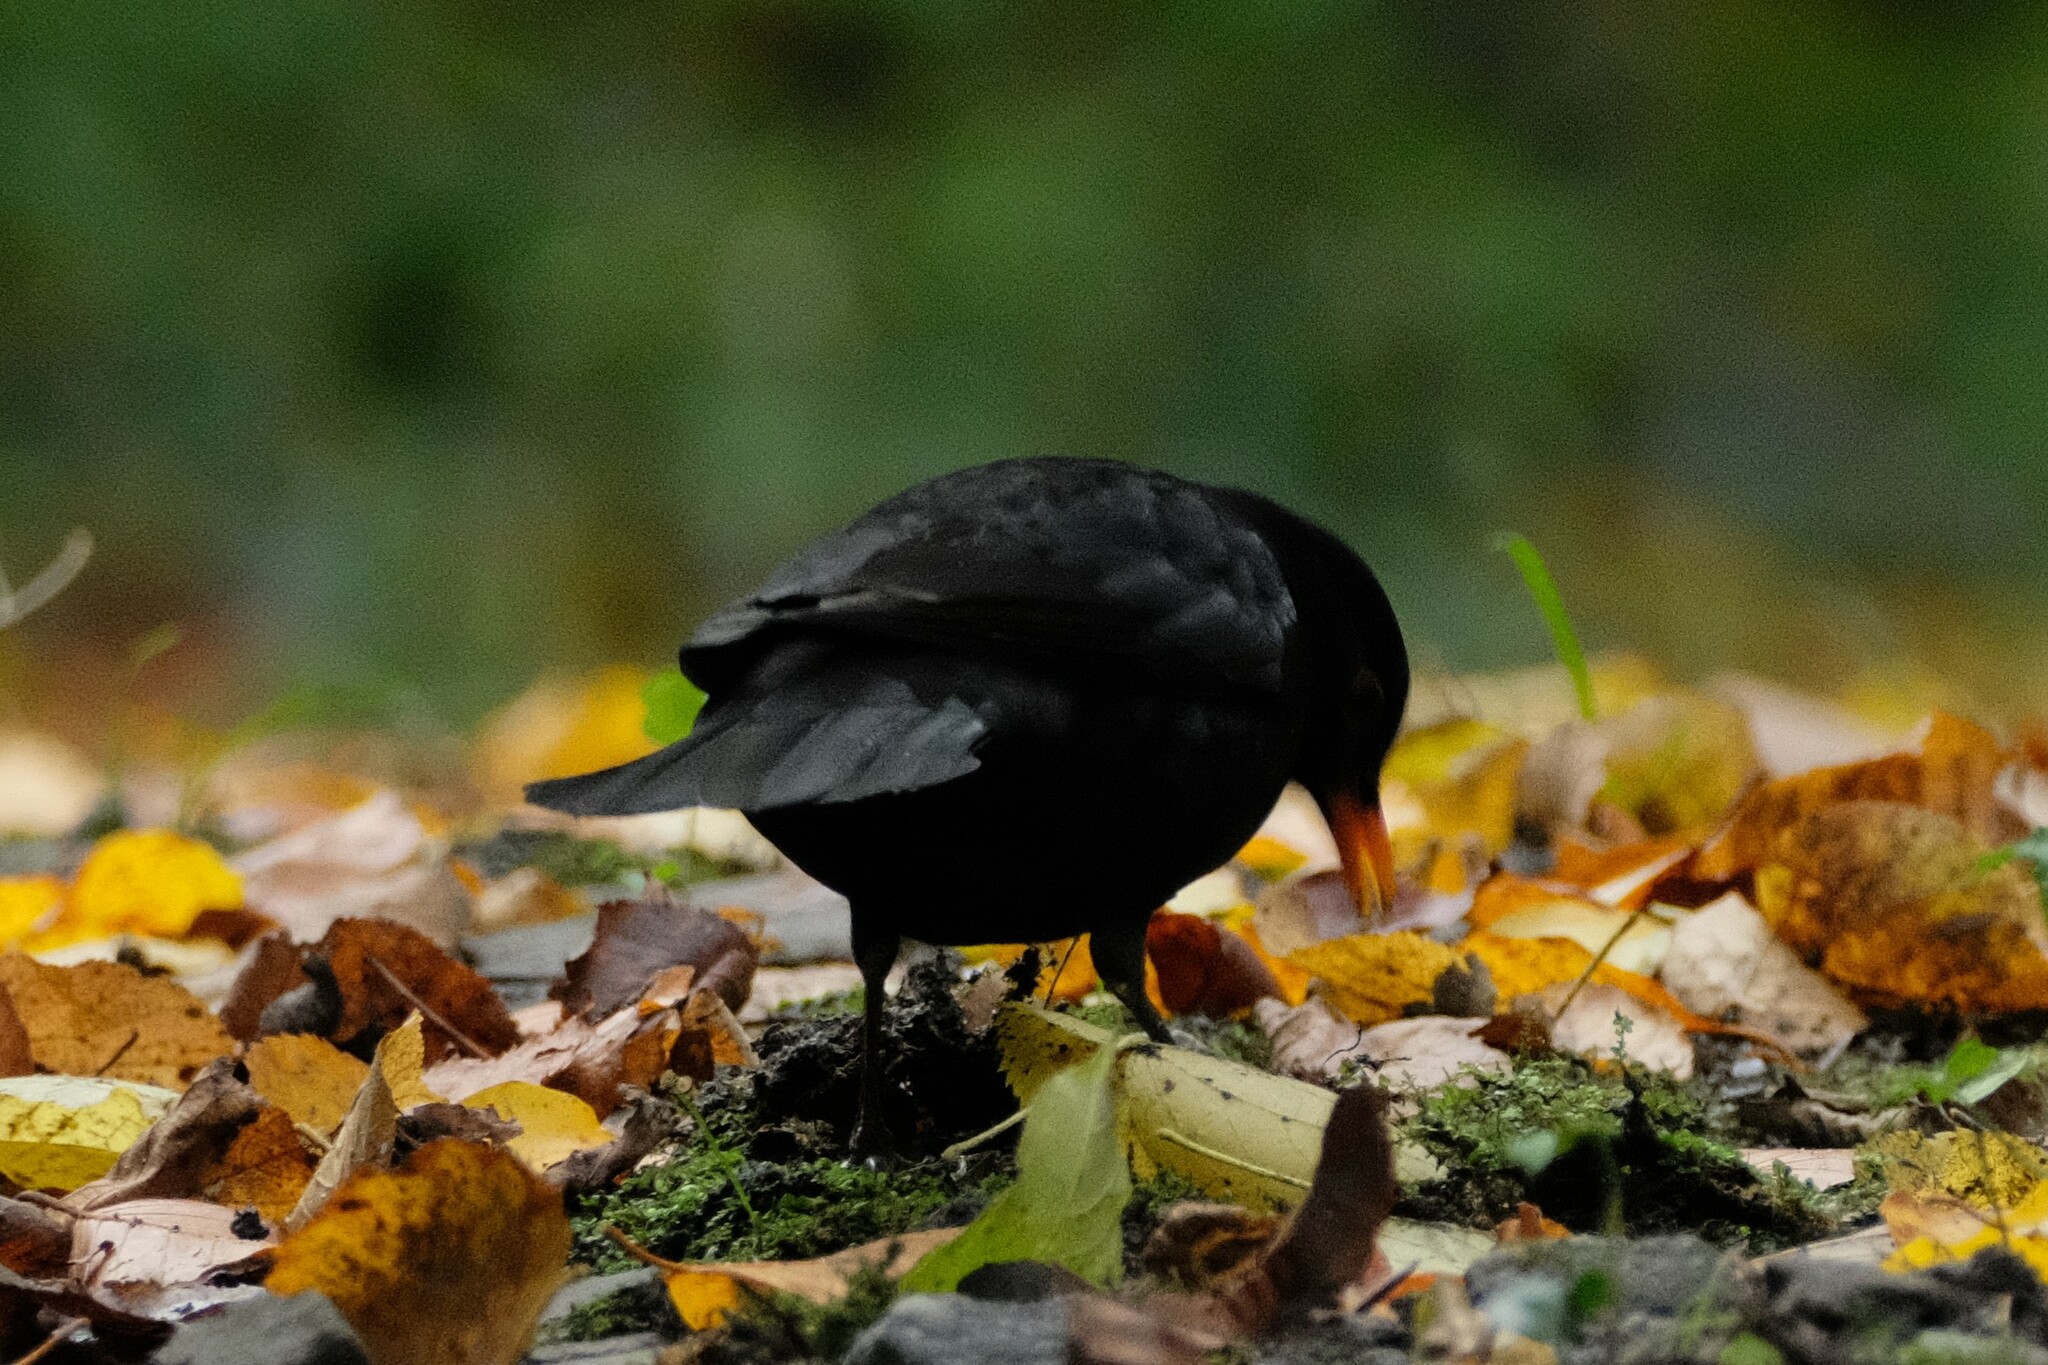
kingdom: Animalia
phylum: Chordata
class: Aves
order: Passeriformes
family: Turdidae
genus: Turdus
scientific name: Turdus merula
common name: Common blackbird
